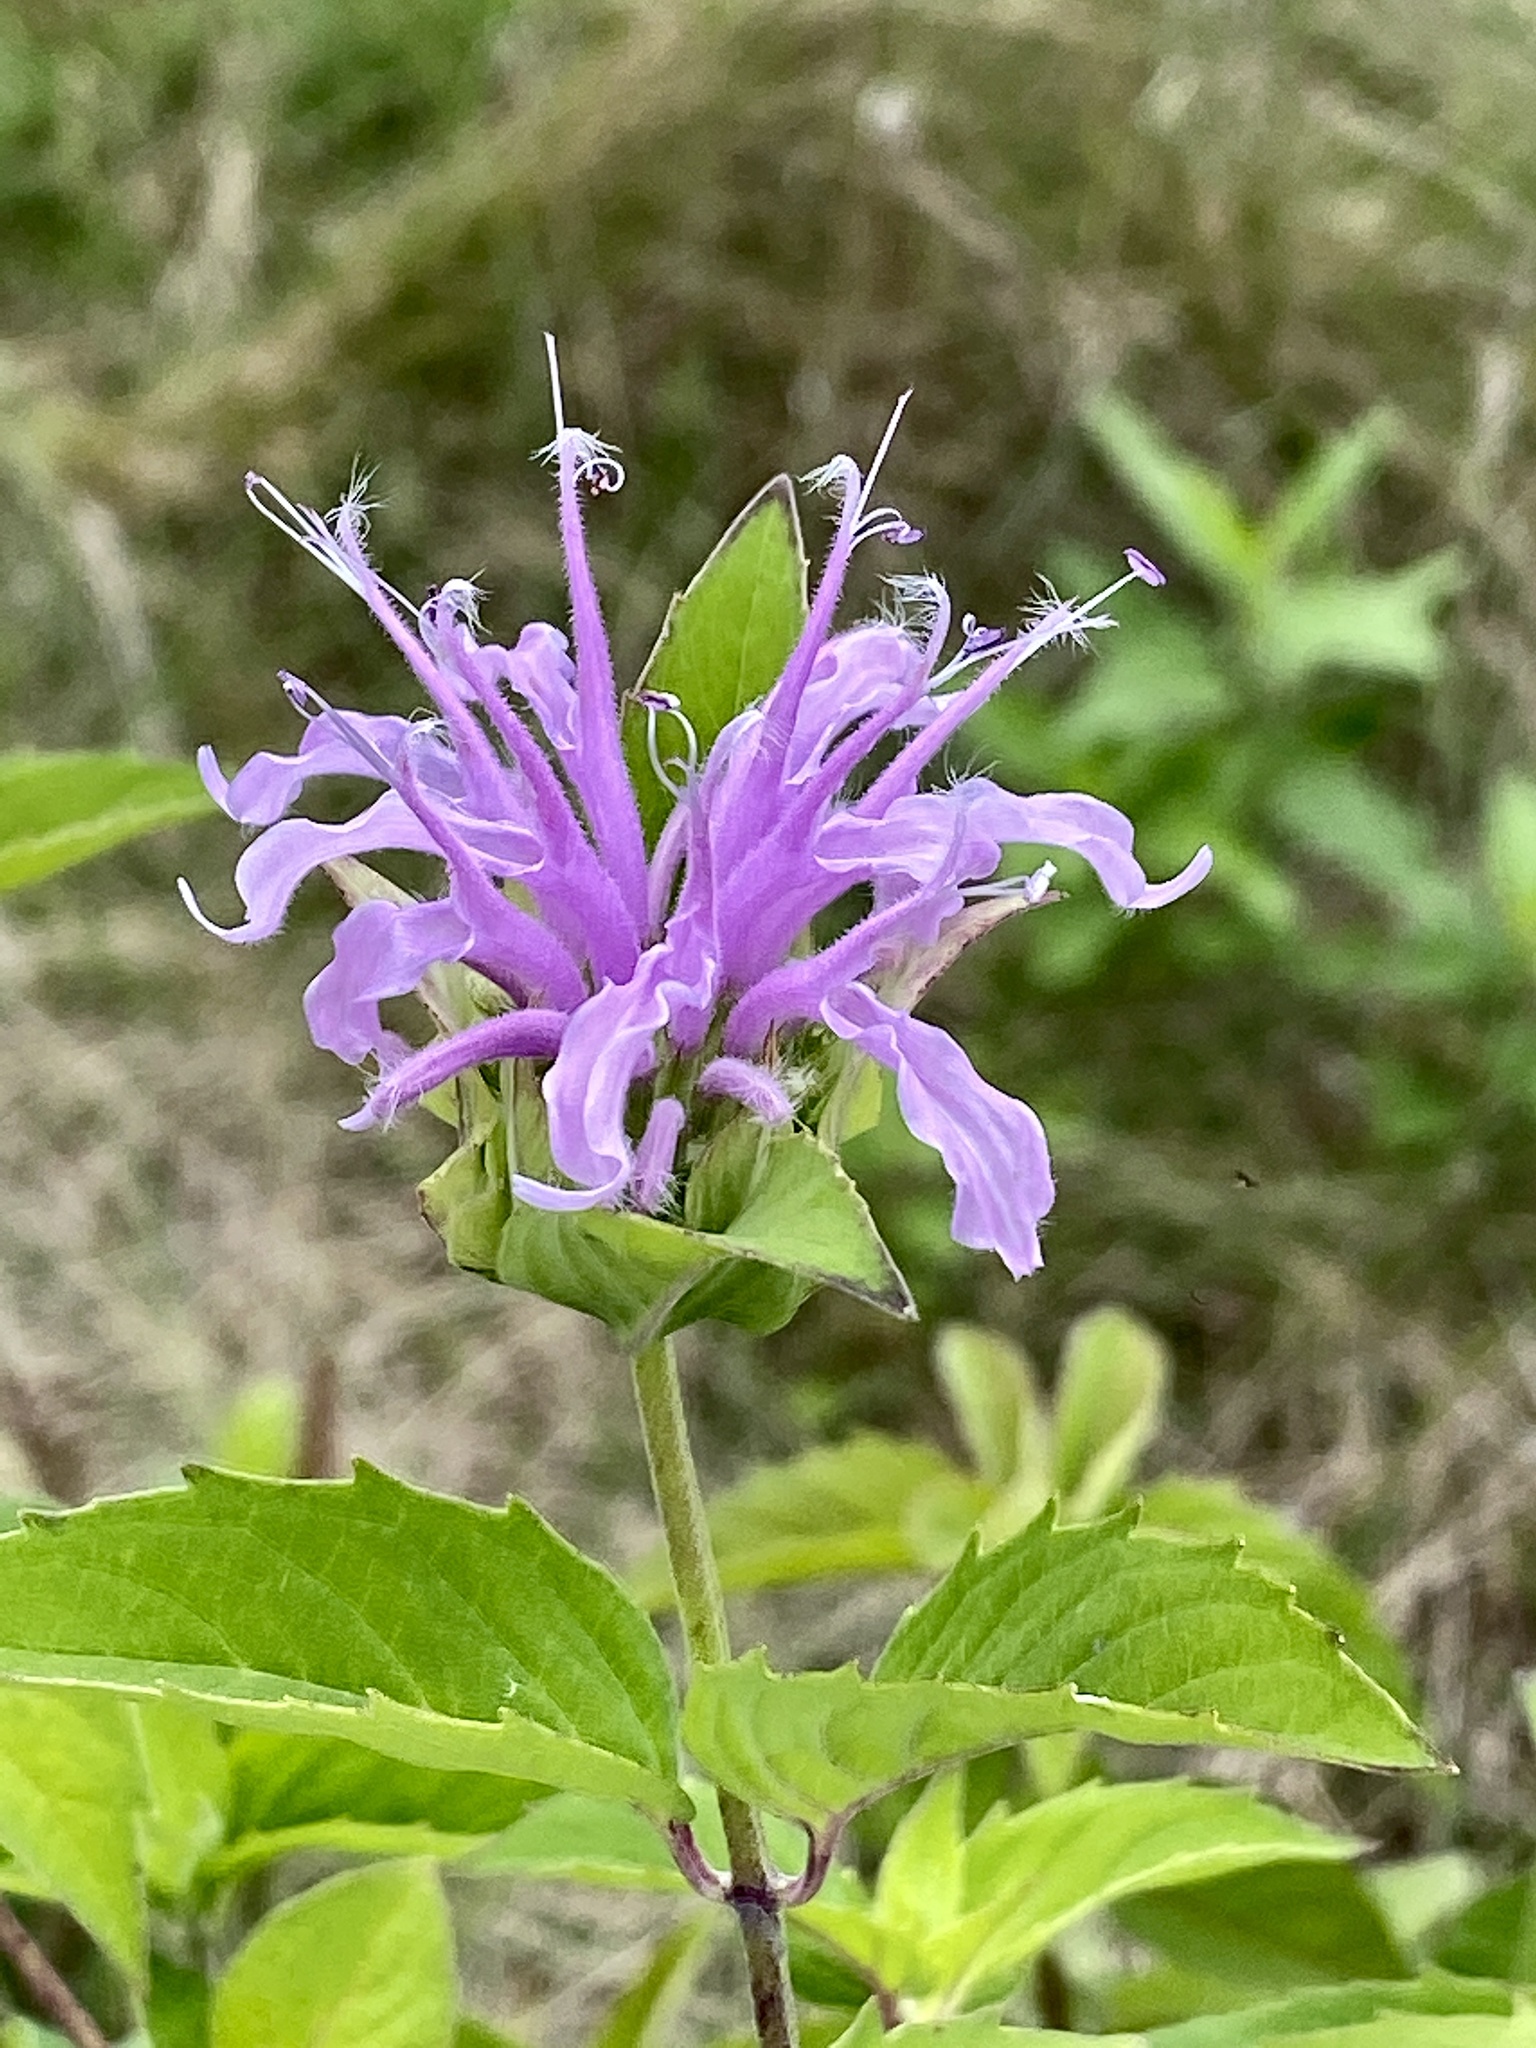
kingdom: Plantae
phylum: Tracheophyta
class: Magnoliopsida
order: Lamiales
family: Lamiaceae
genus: Monarda
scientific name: Monarda fistulosa
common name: Purple beebalm
